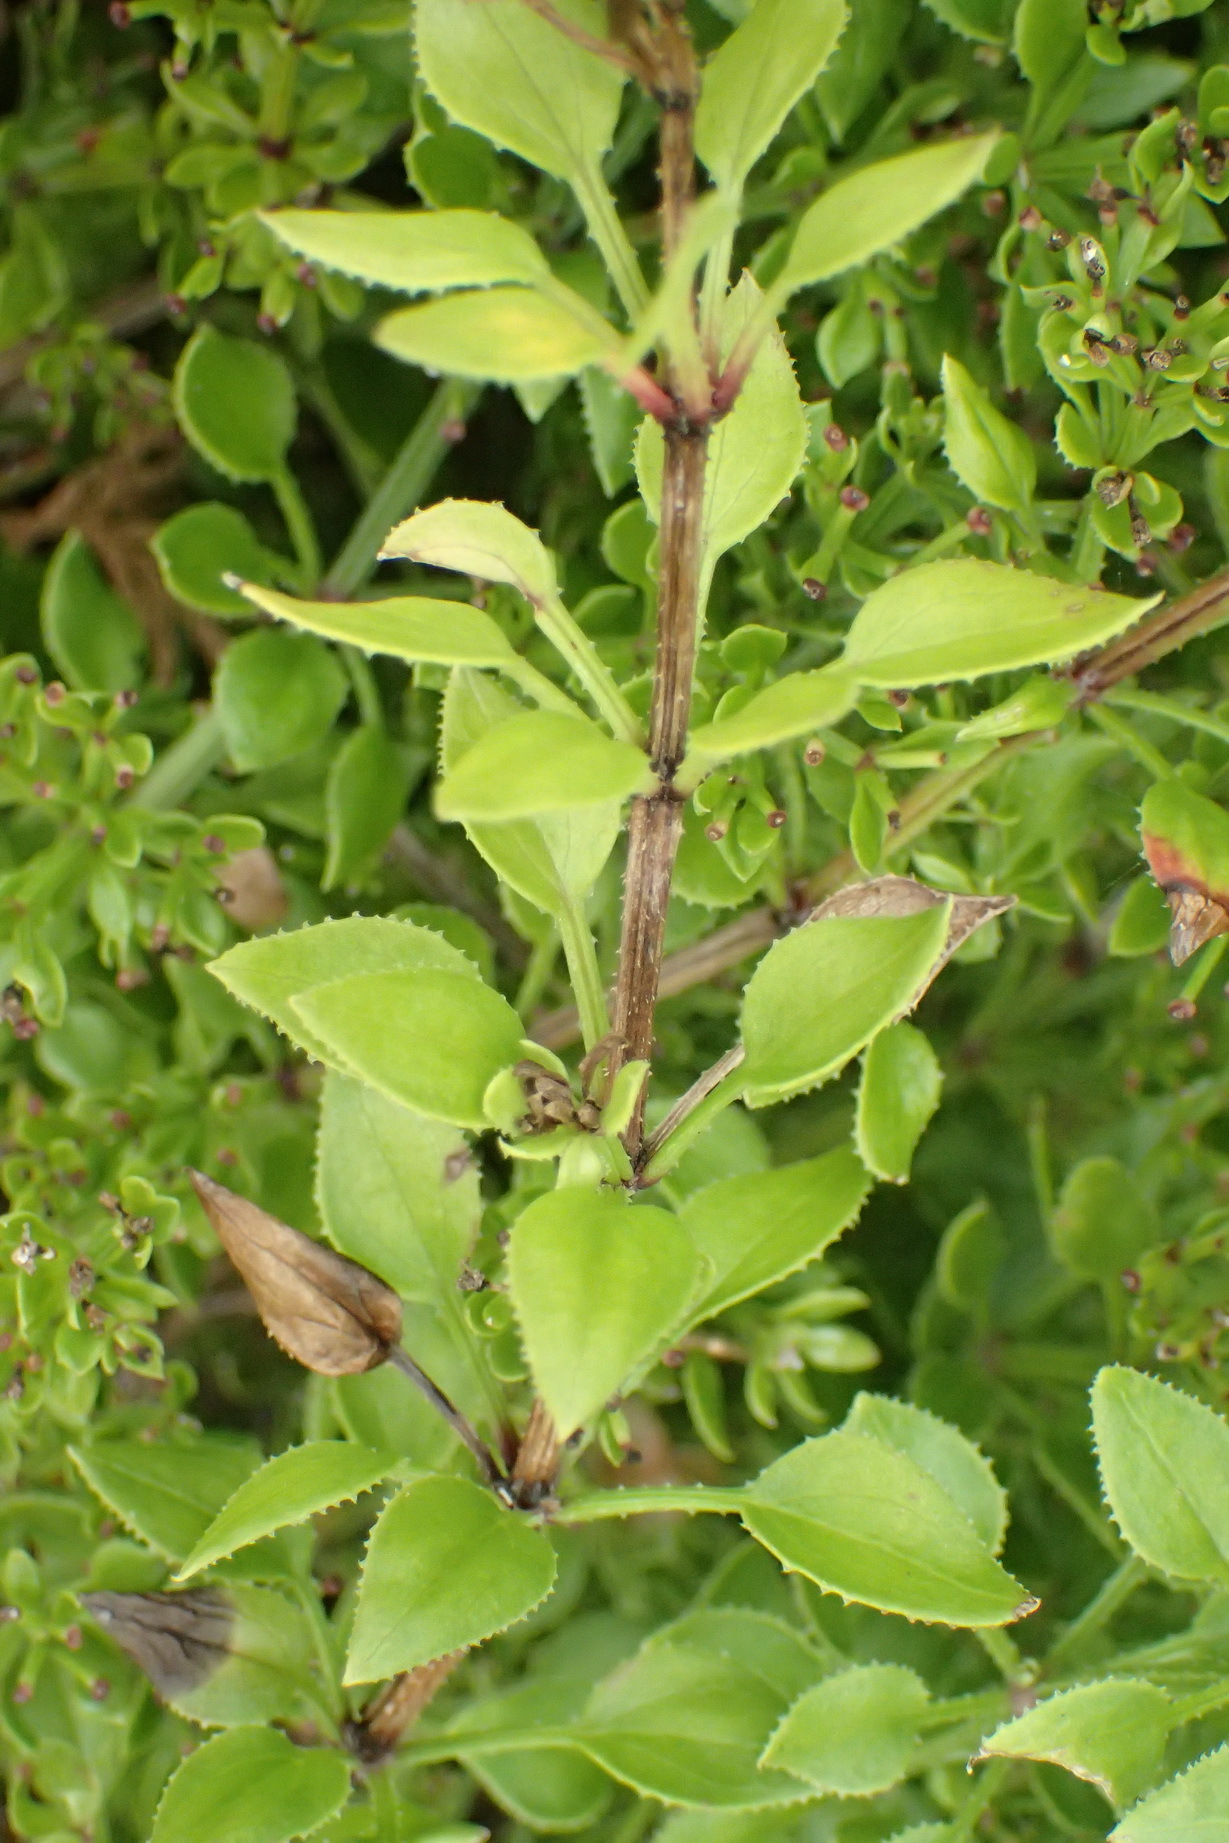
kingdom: Plantae
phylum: Tracheophyta
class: Magnoliopsida
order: Gentianales
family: Rubiaceae
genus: Rubia
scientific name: Rubia petiolaris
